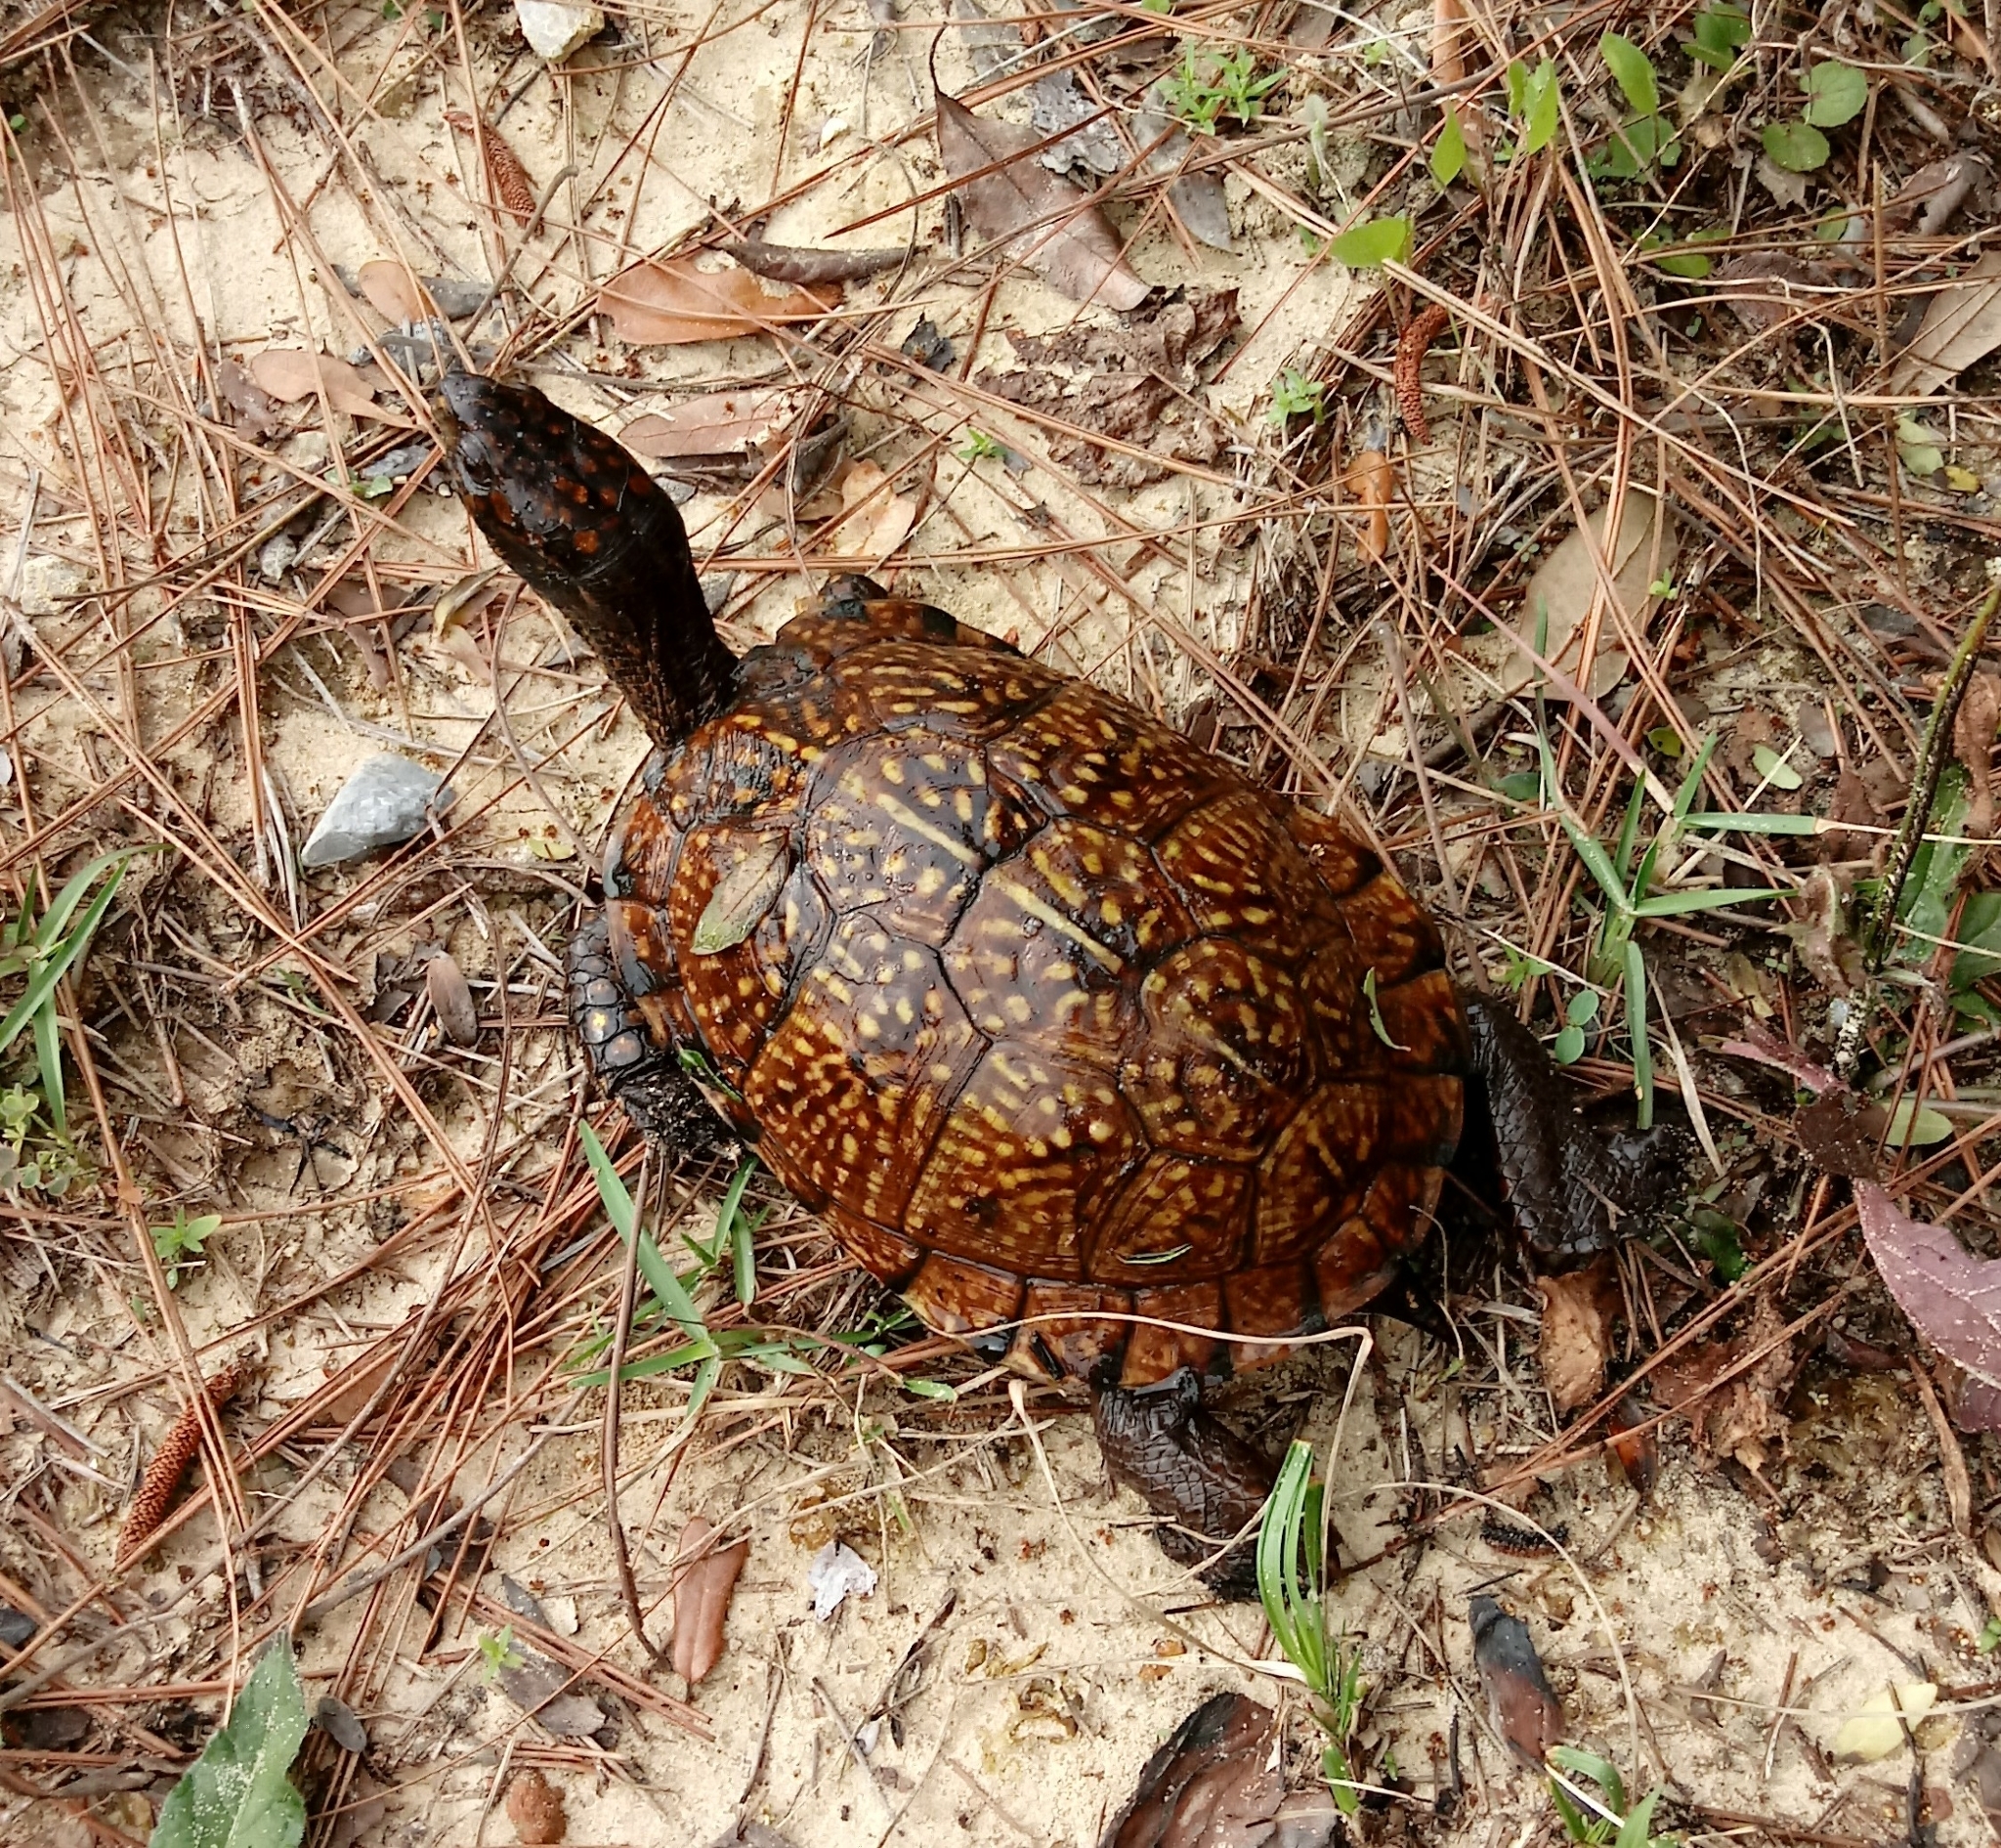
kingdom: Animalia
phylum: Chordata
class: Testudines
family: Emydidae
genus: Terrapene
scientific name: Terrapene carolina
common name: Common box turtle
